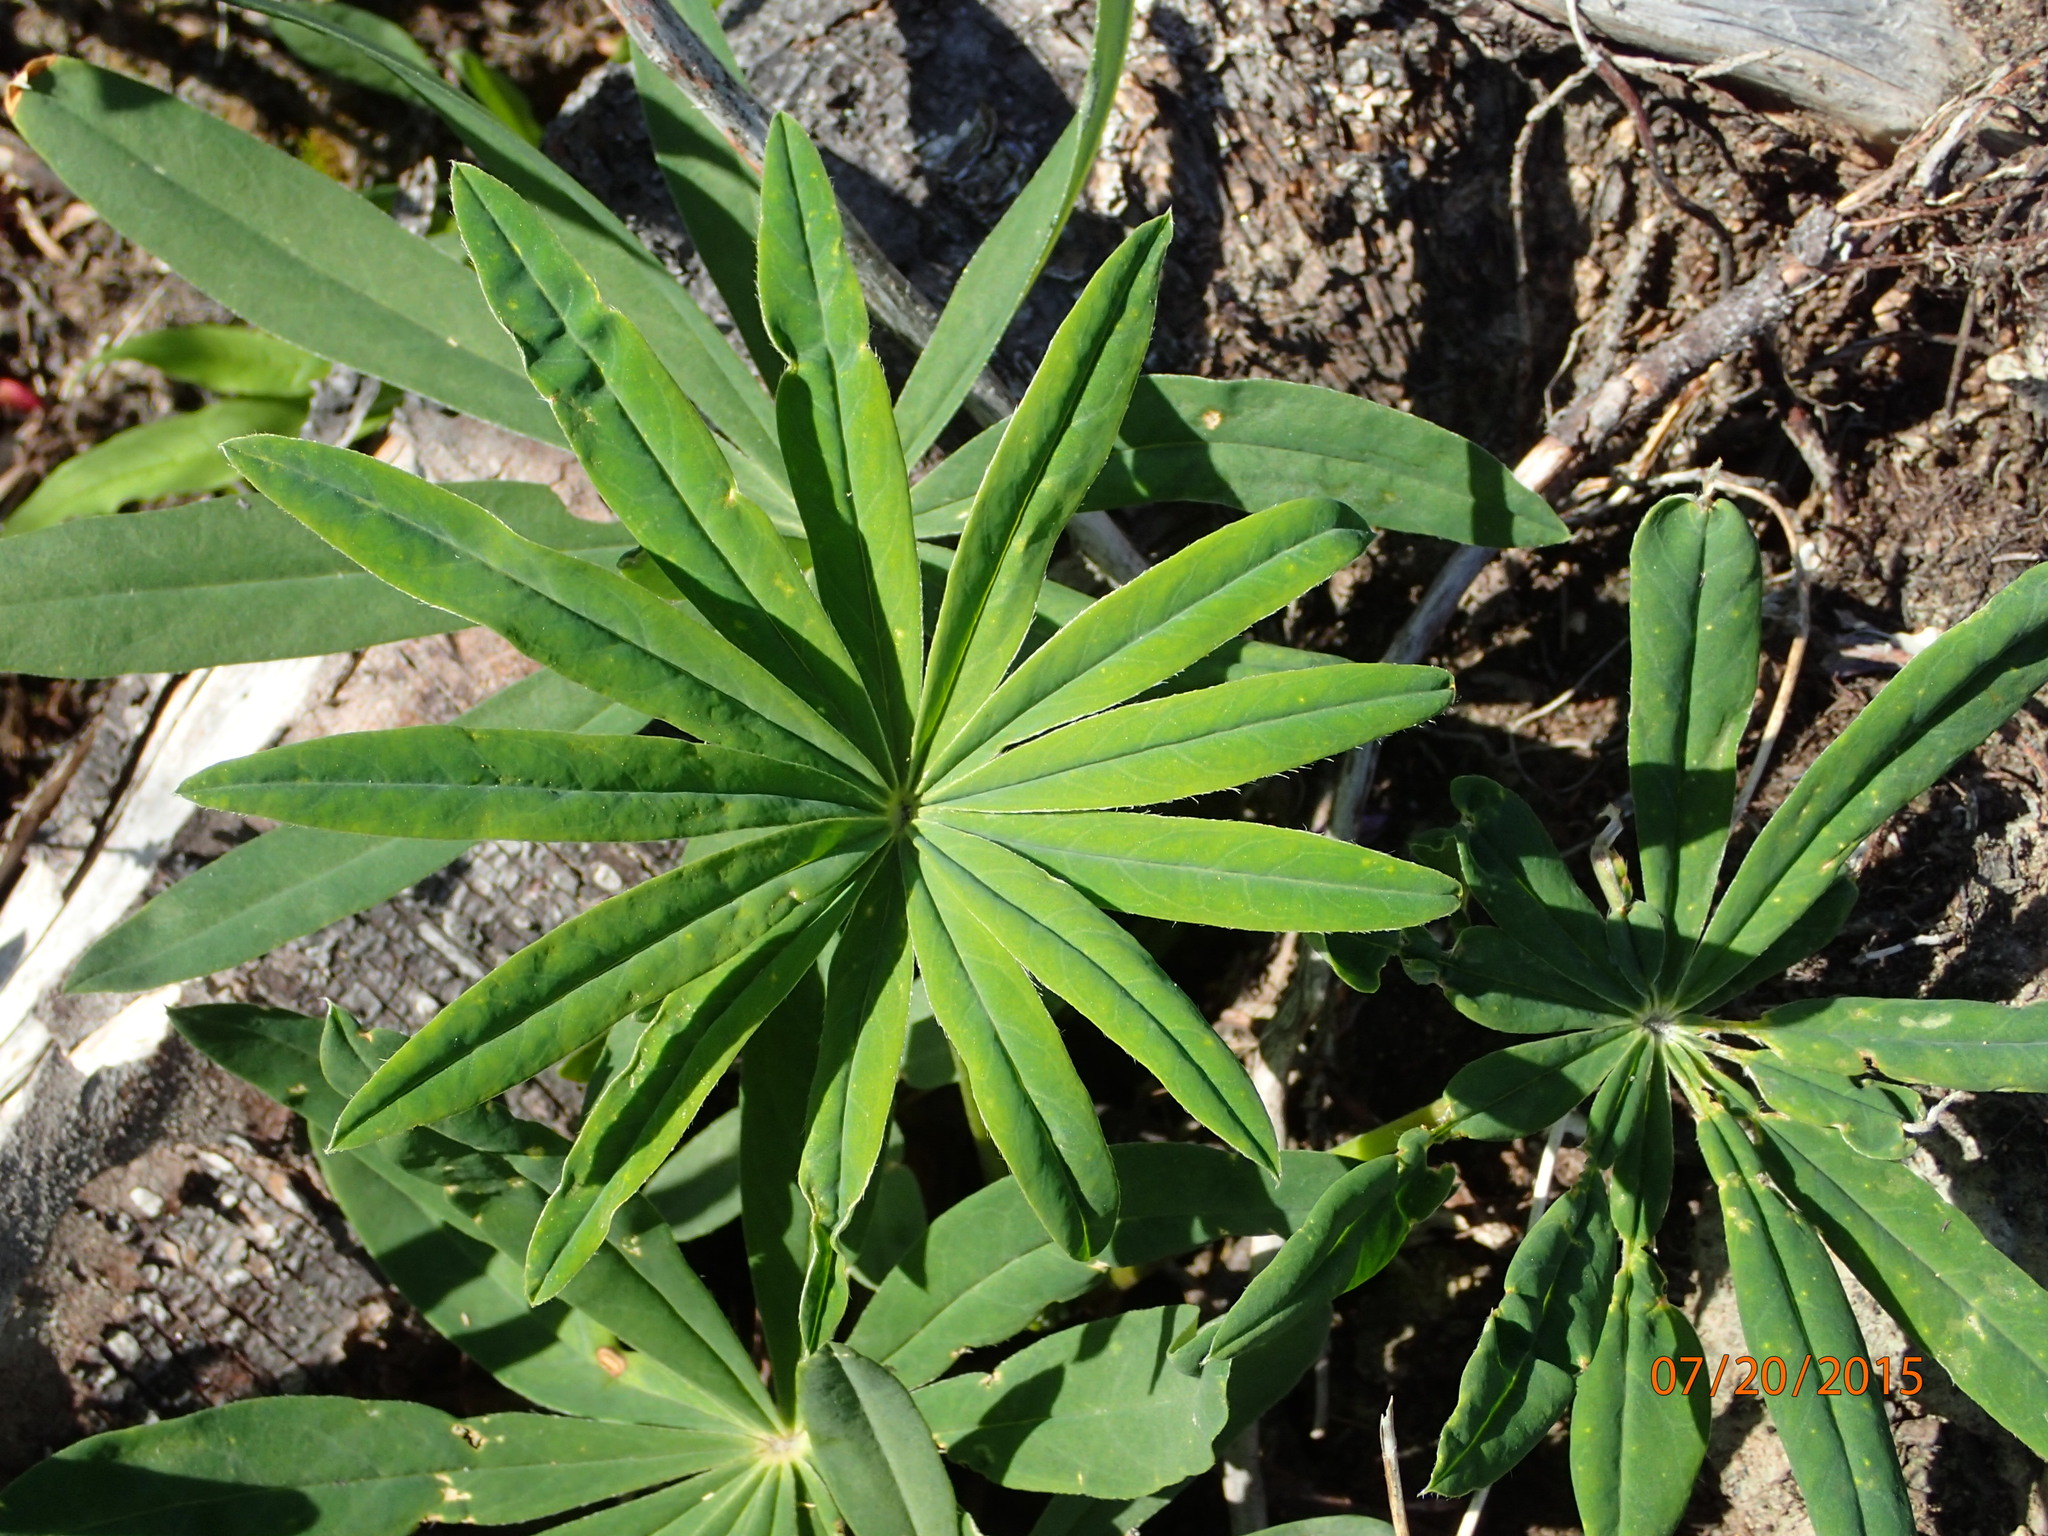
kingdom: Plantae
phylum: Tracheophyta
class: Magnoliopsida
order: Fabales
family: Fabaceae
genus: Lupinus
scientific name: Lupinus polyphyllus
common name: Garden lupin
